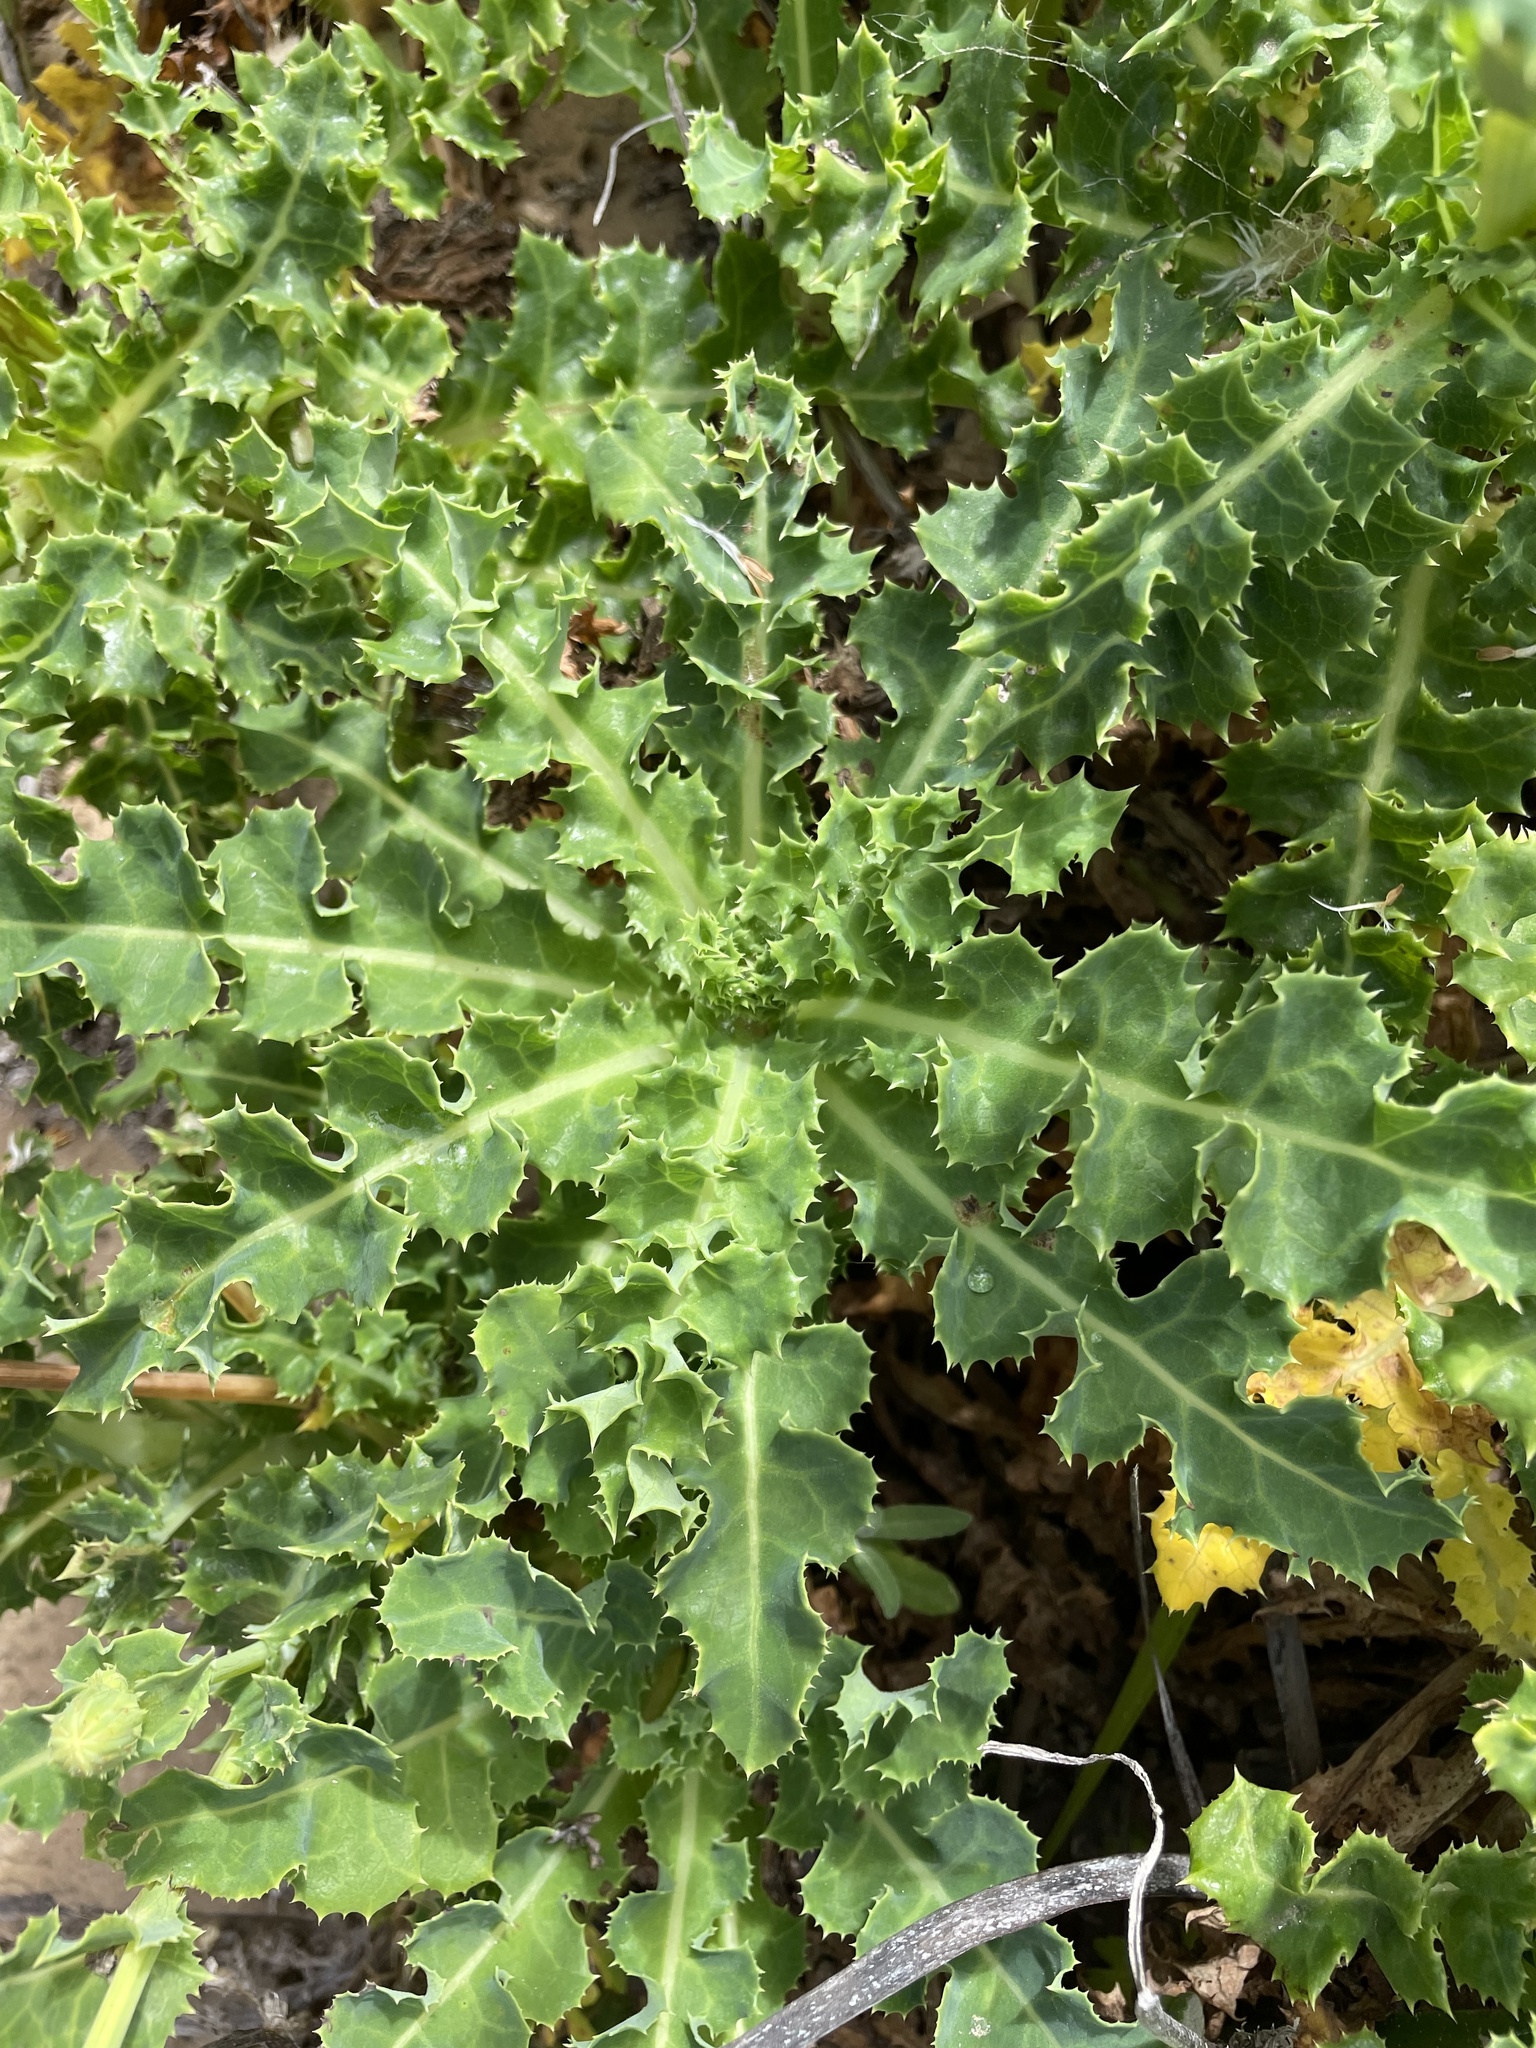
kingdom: Plantae
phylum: Tracheophyta
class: Magnoliopsida
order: Asterales
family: Asteraceae
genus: Sonchus
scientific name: Sonchus megalocarpus
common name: Dune thistle
